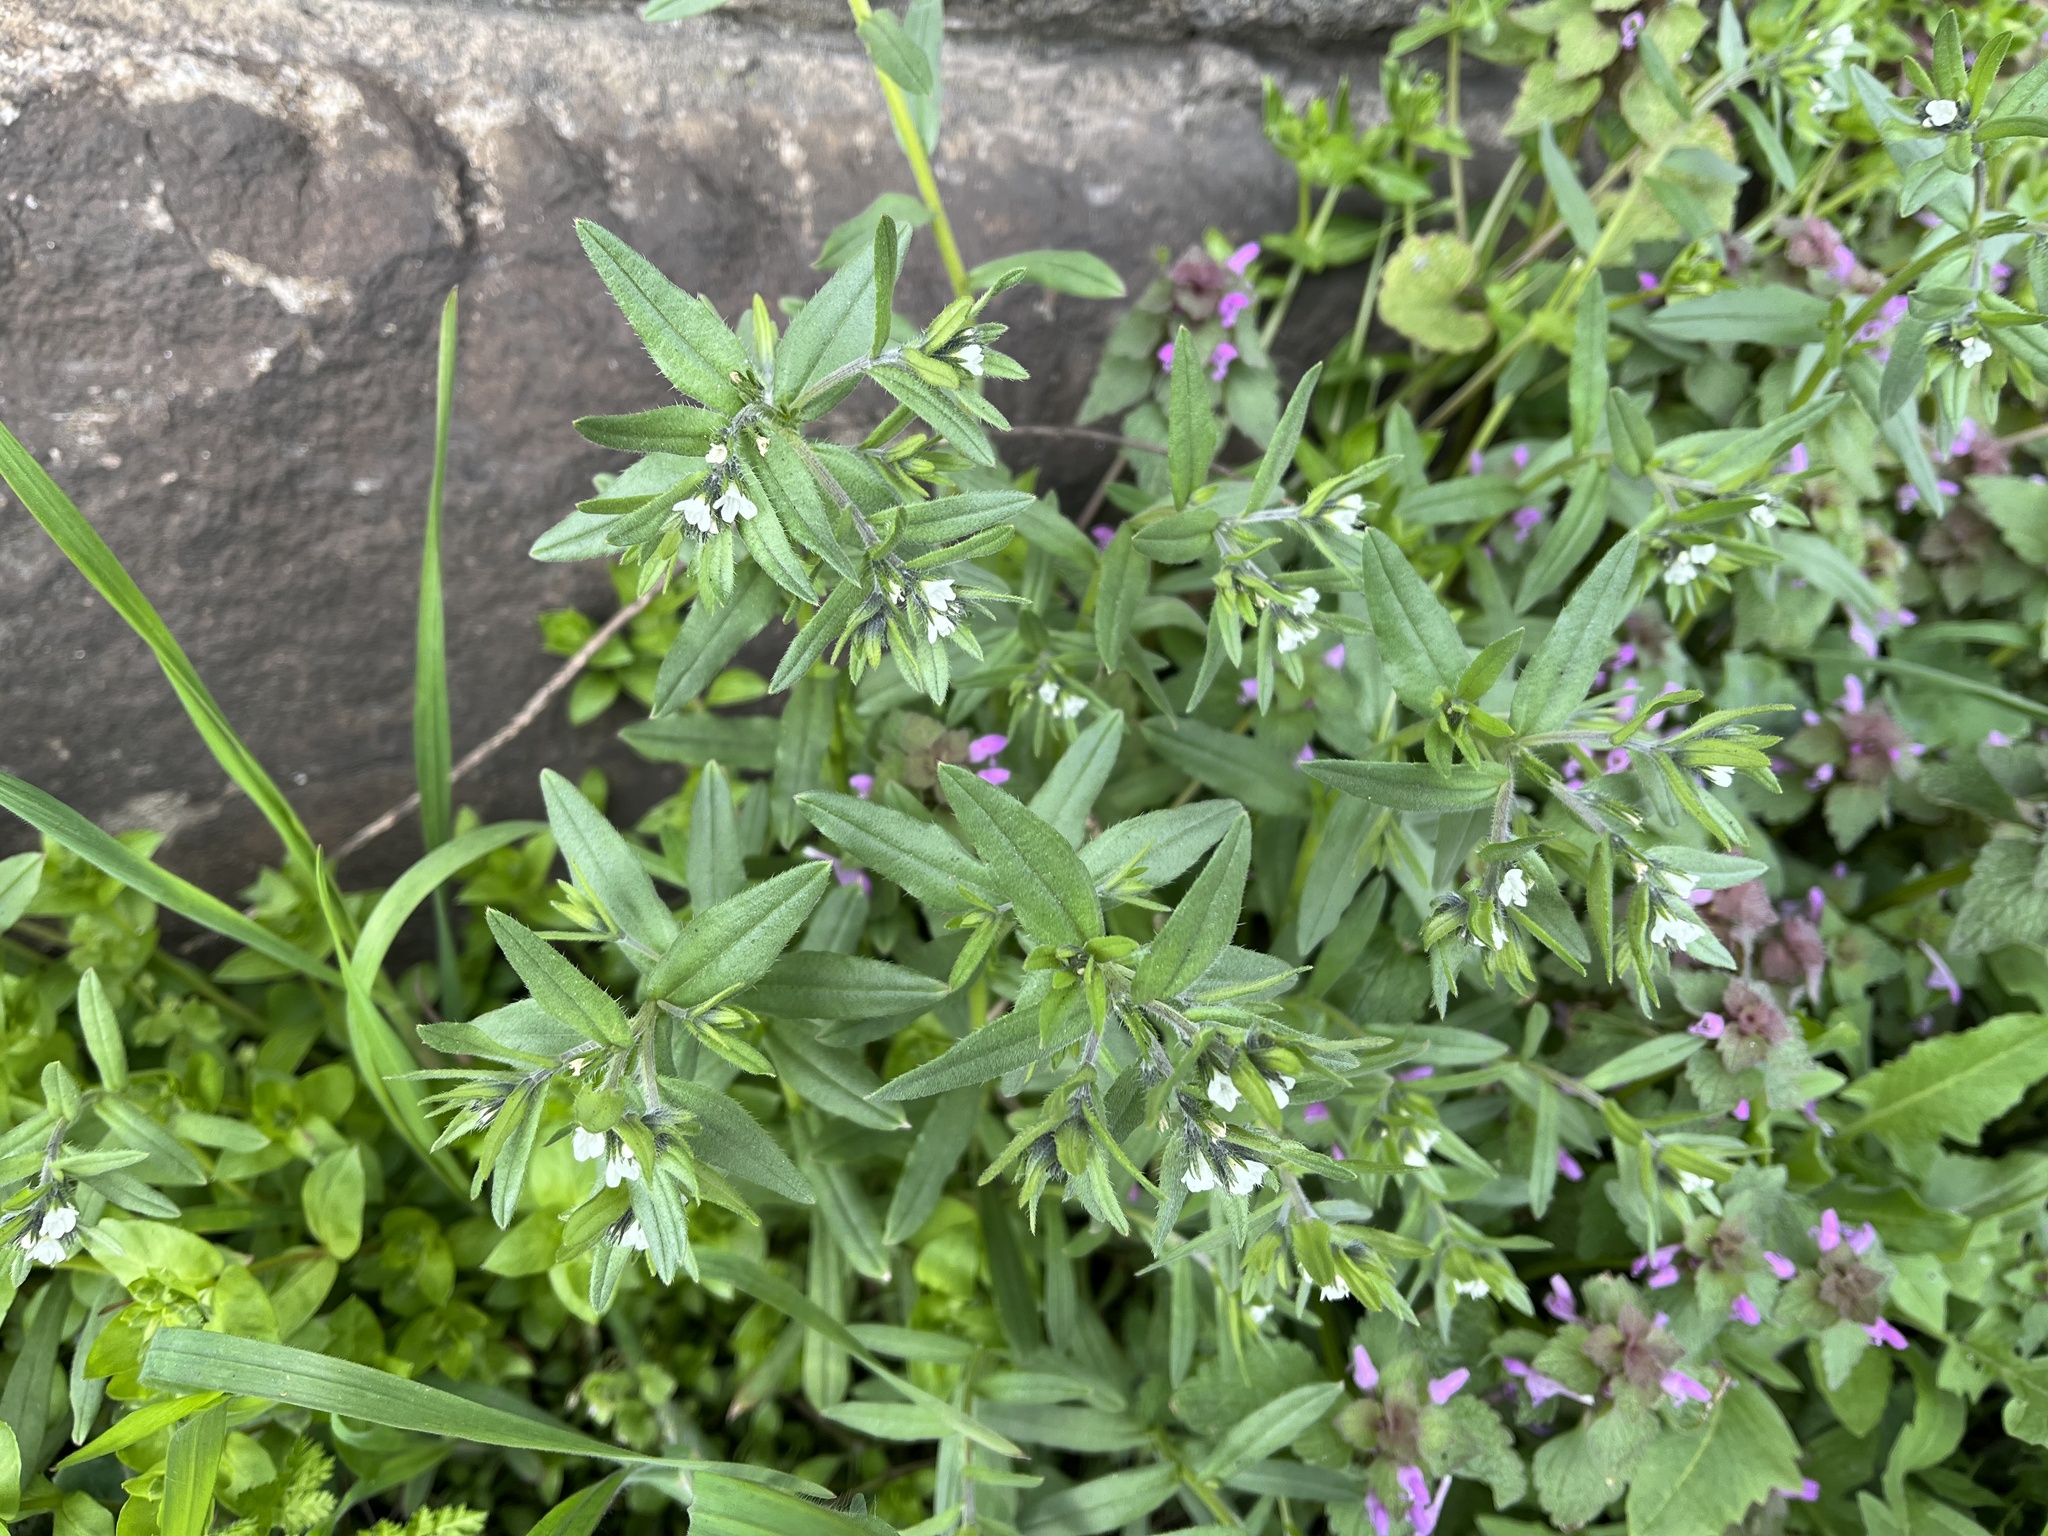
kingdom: Plantae
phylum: Tracheophyta
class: Magnoliopsida
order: Boraginales
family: Boraginaceae
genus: Buglossoides
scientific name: Buglossoides arvensis
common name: Corn gromwell
